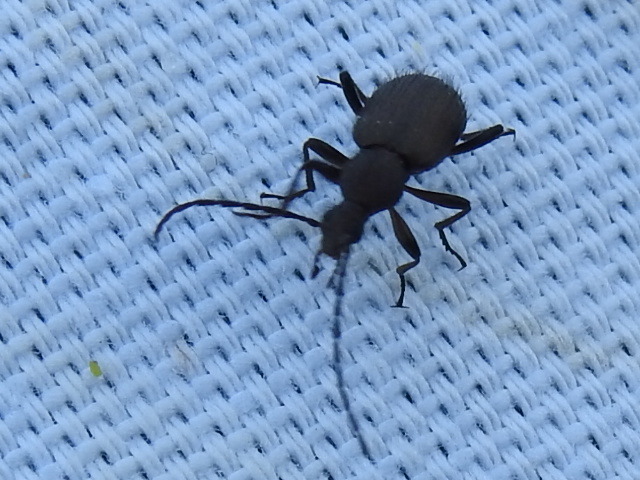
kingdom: Animalia
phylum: Arthropoda
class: Insecta
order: Coleoptera
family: Tenebrionidae
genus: Lystronychus
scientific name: Lystronychus piliferus
